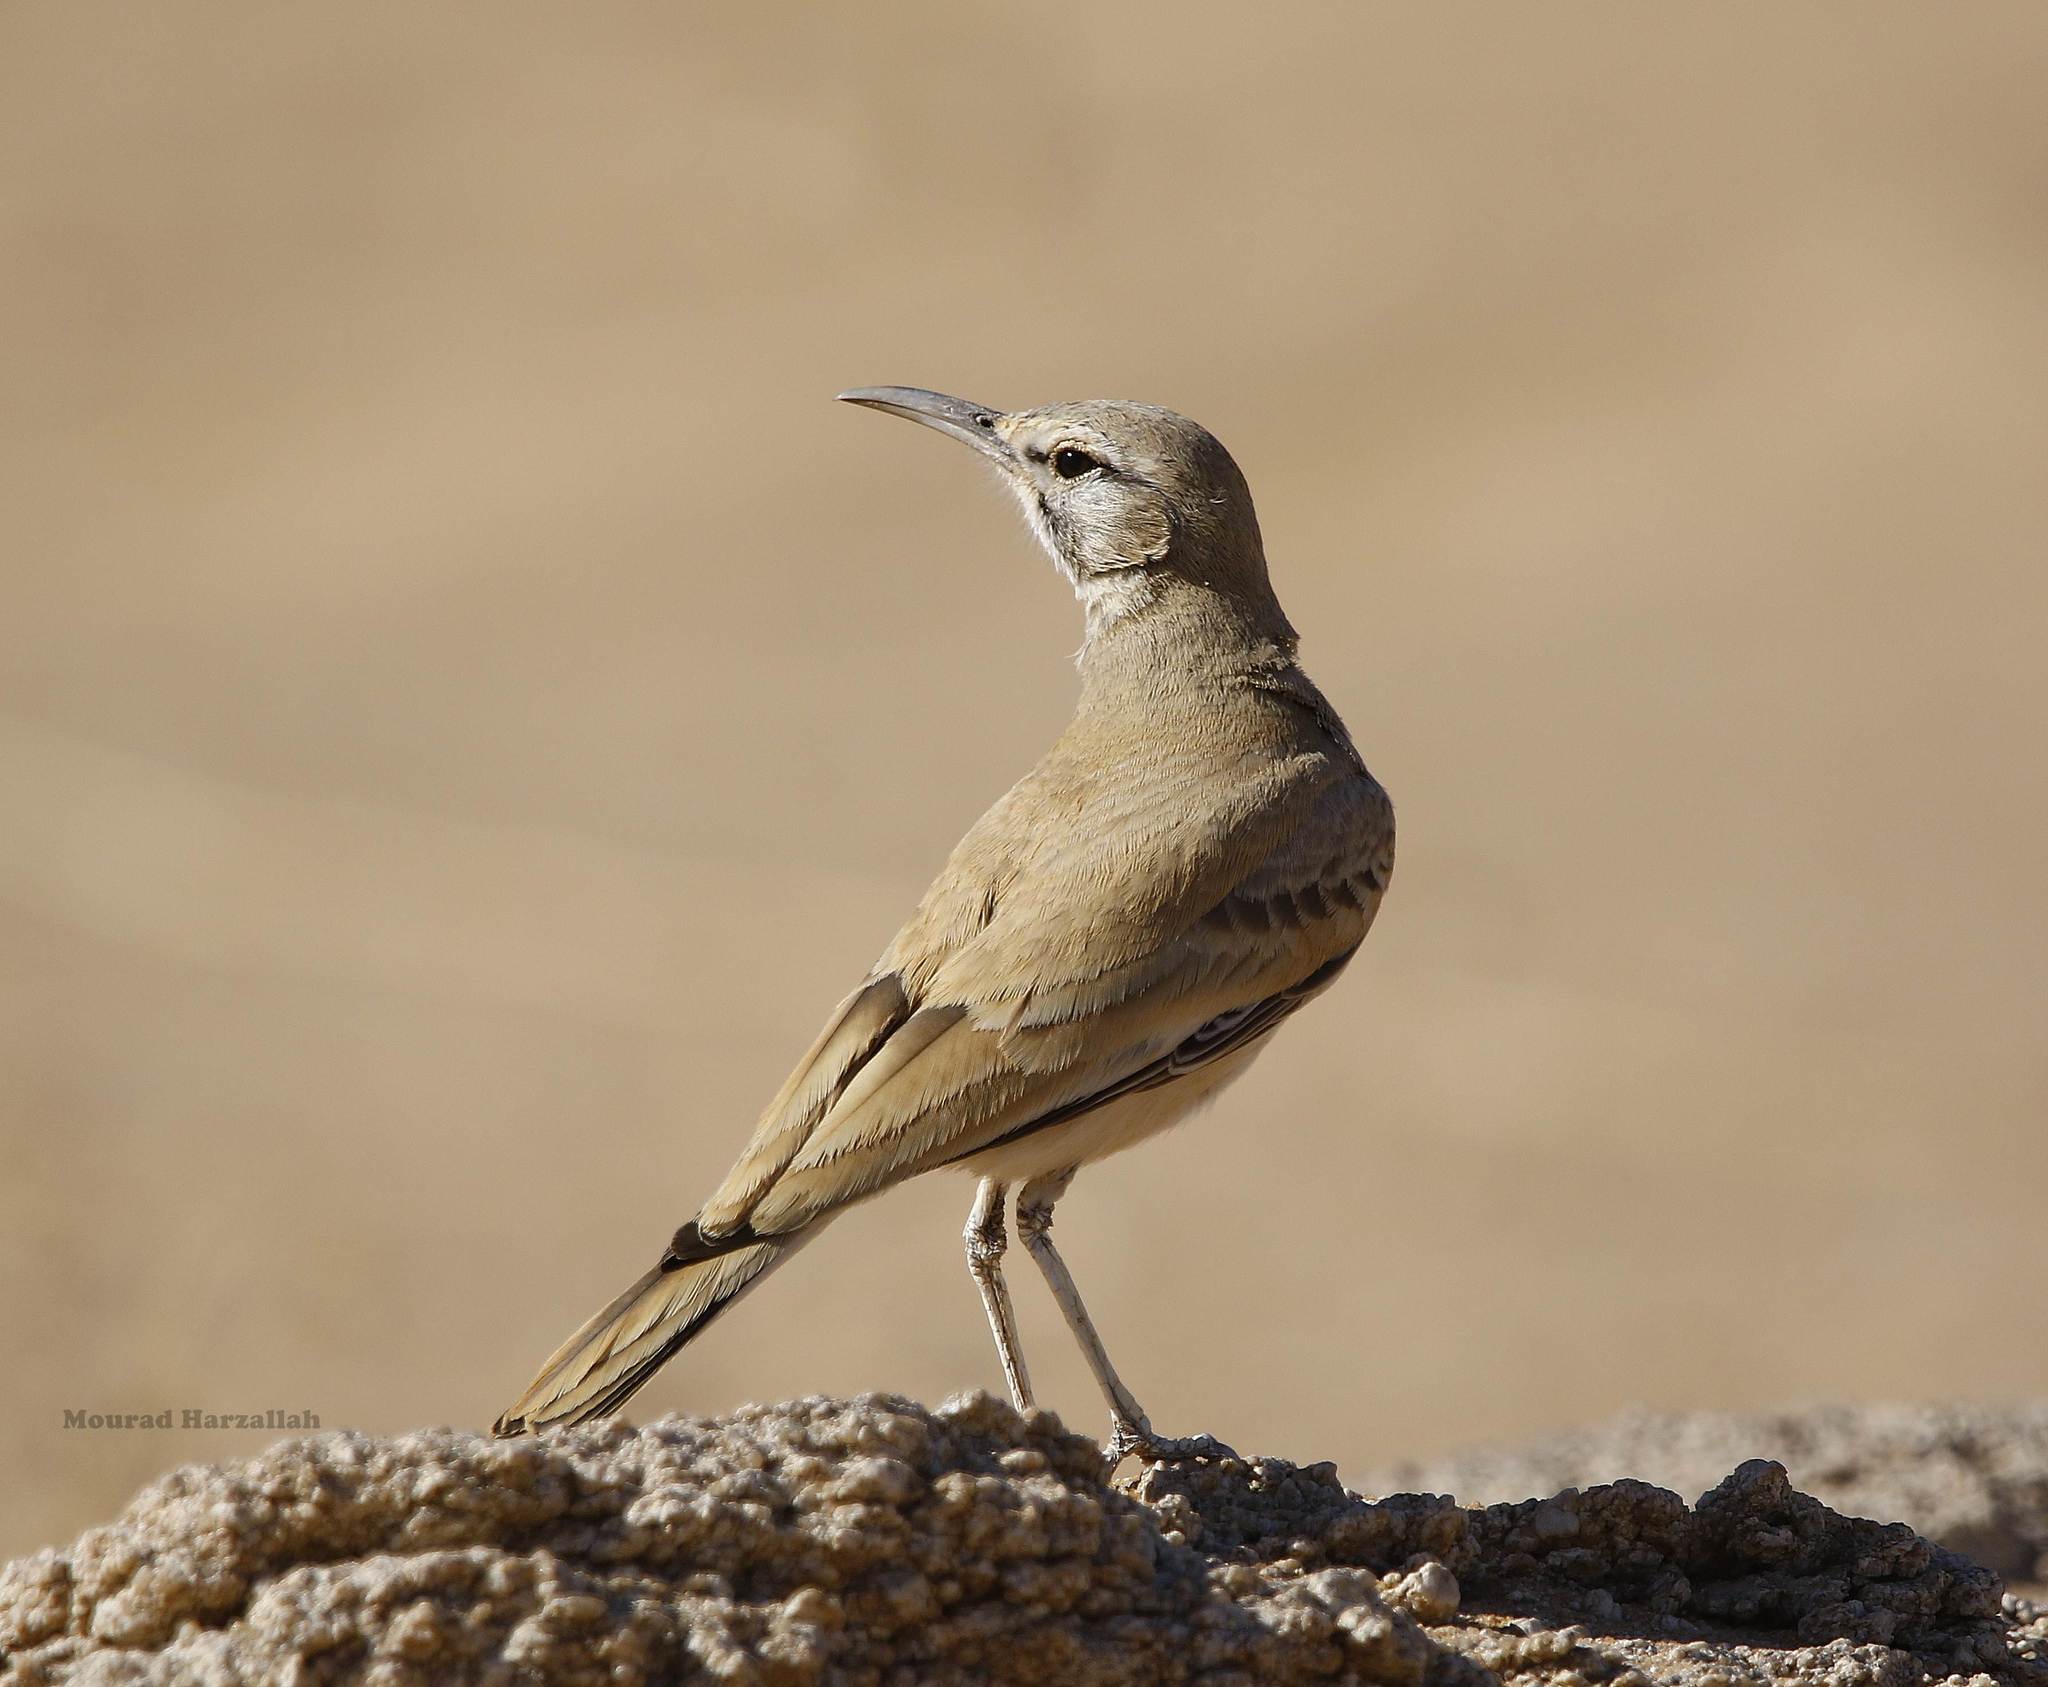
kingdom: Animalia
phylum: Chordata
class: Aves
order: Passeriformes
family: Alaudidae
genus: Alaemon
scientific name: Alaemon alaudipes
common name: Greater hoopoe-lark
